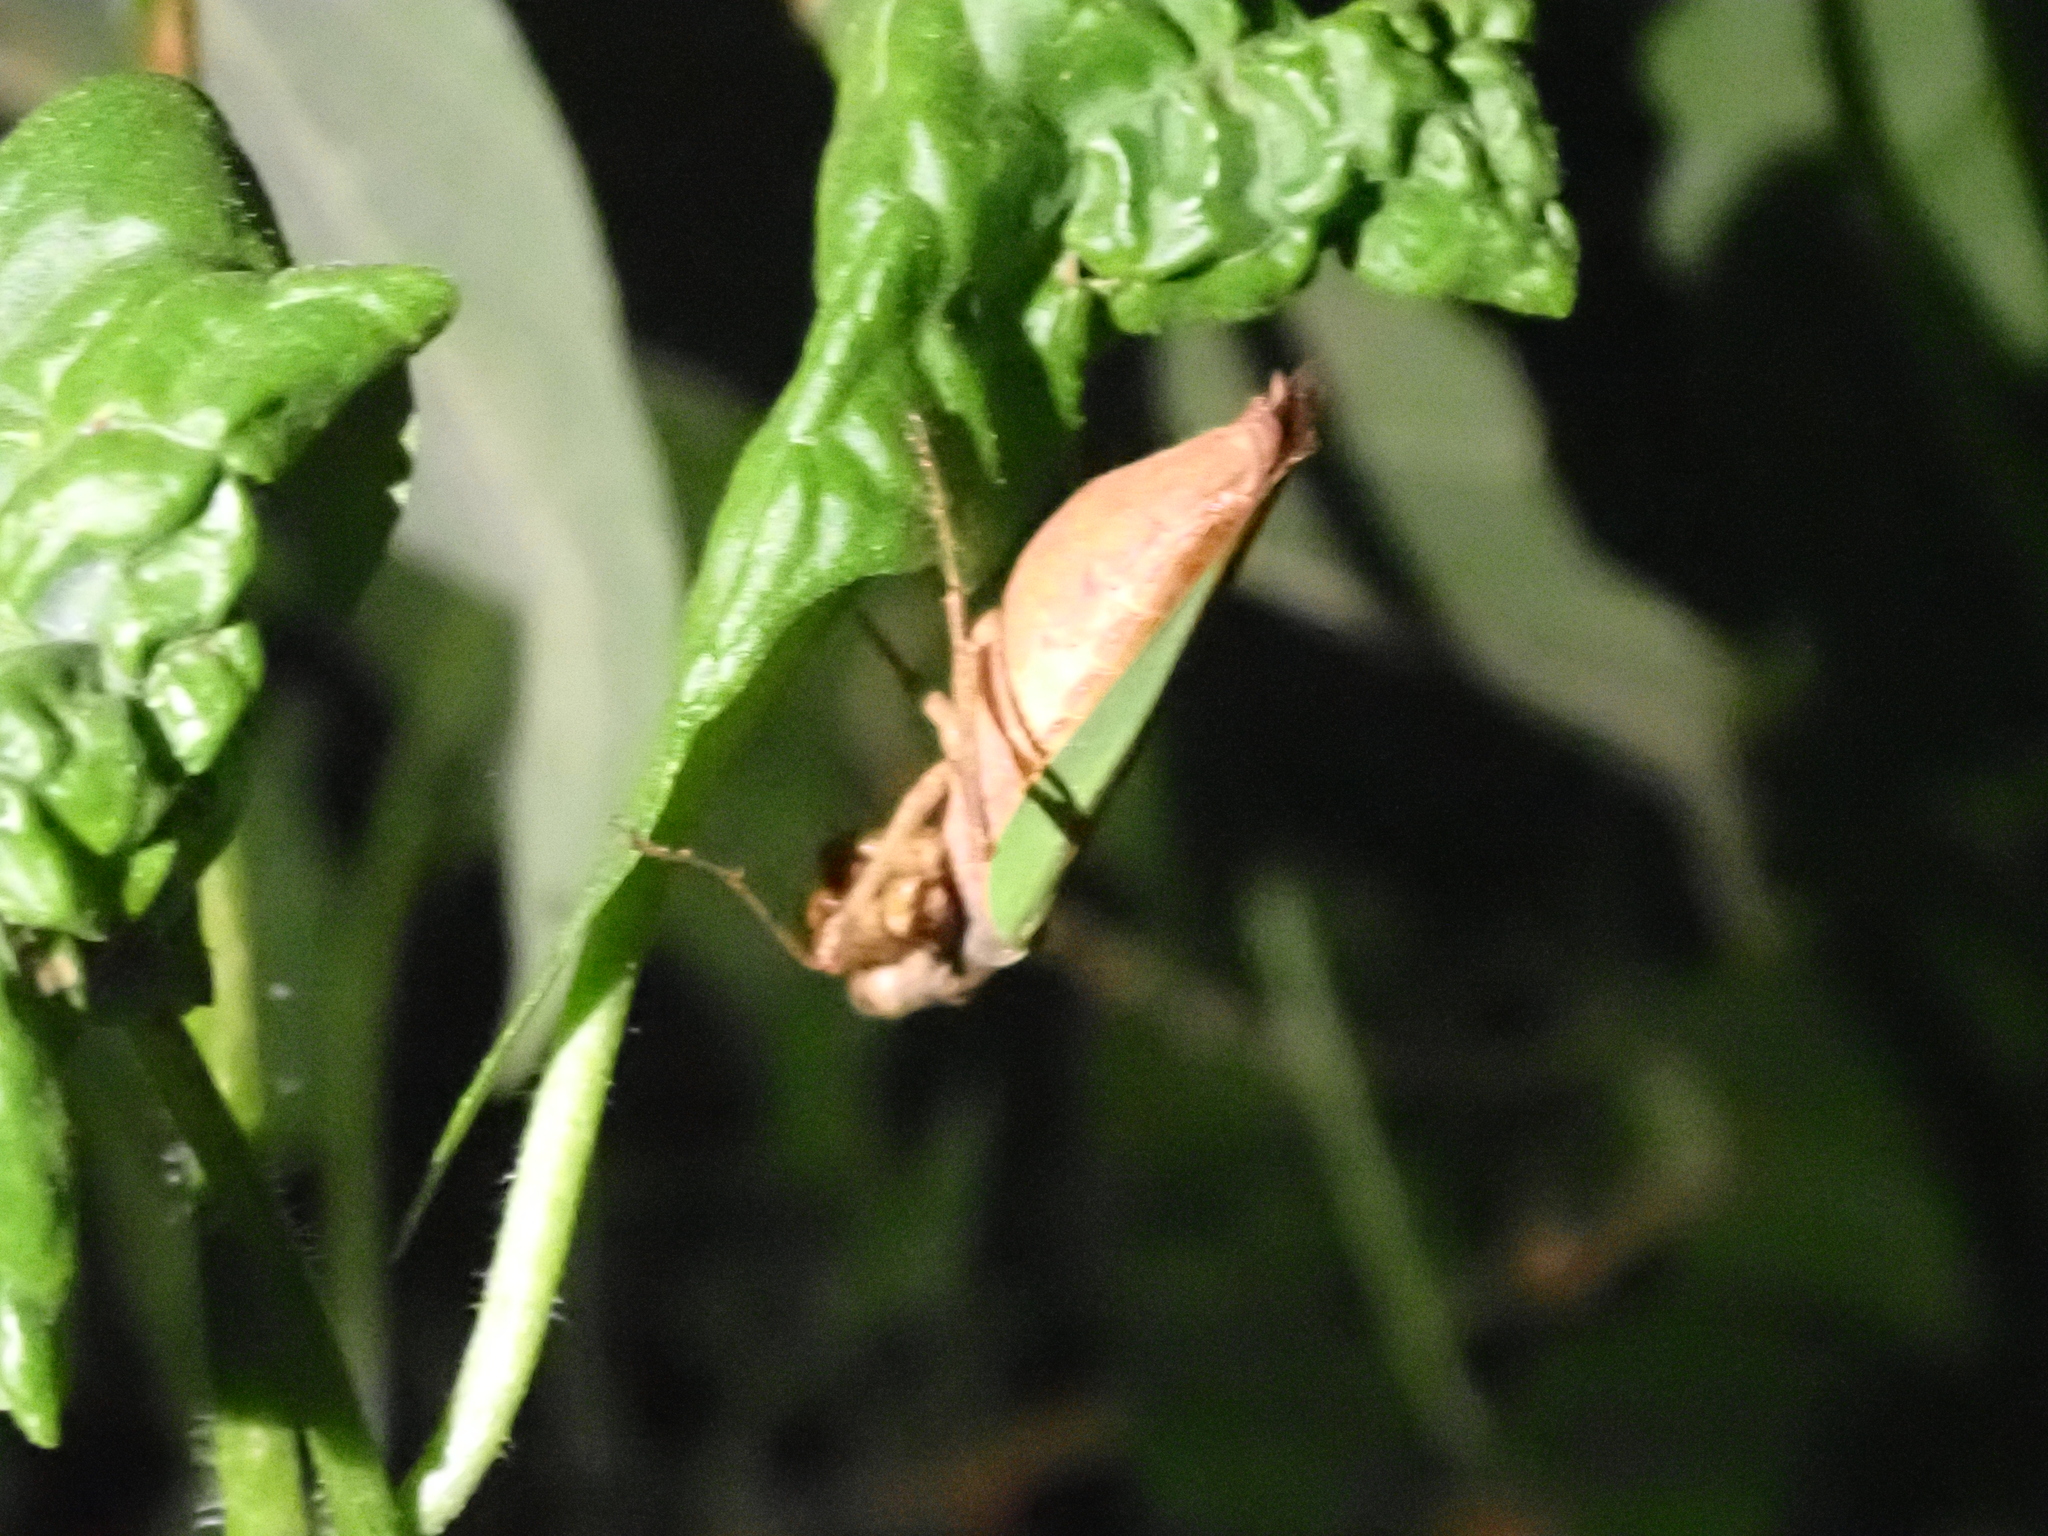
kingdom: Animalia
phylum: Arthropoda
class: Insecta
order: Mantodea
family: Hymenopodidae
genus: Acromantis
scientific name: Acromantis japonica
